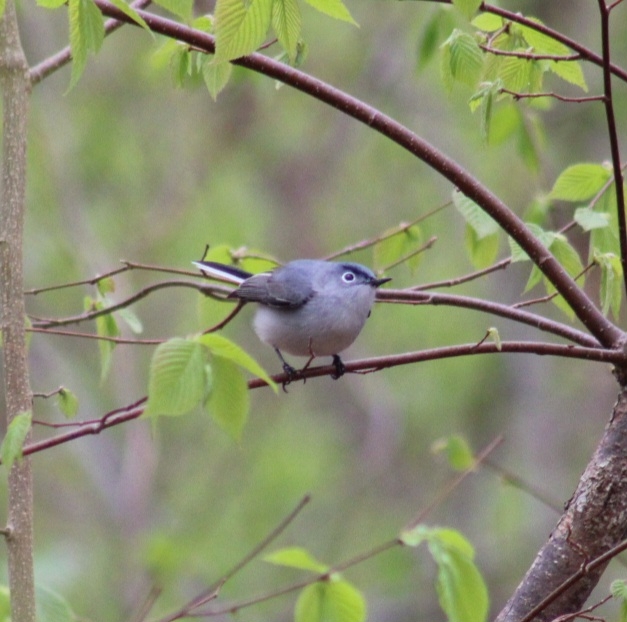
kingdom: Animalia
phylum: Chordata
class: Aves
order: Passeriformes
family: Polioptilidae
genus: Polioptila
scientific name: Polioptila caerulea
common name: Blue-gray gnatcatcher
